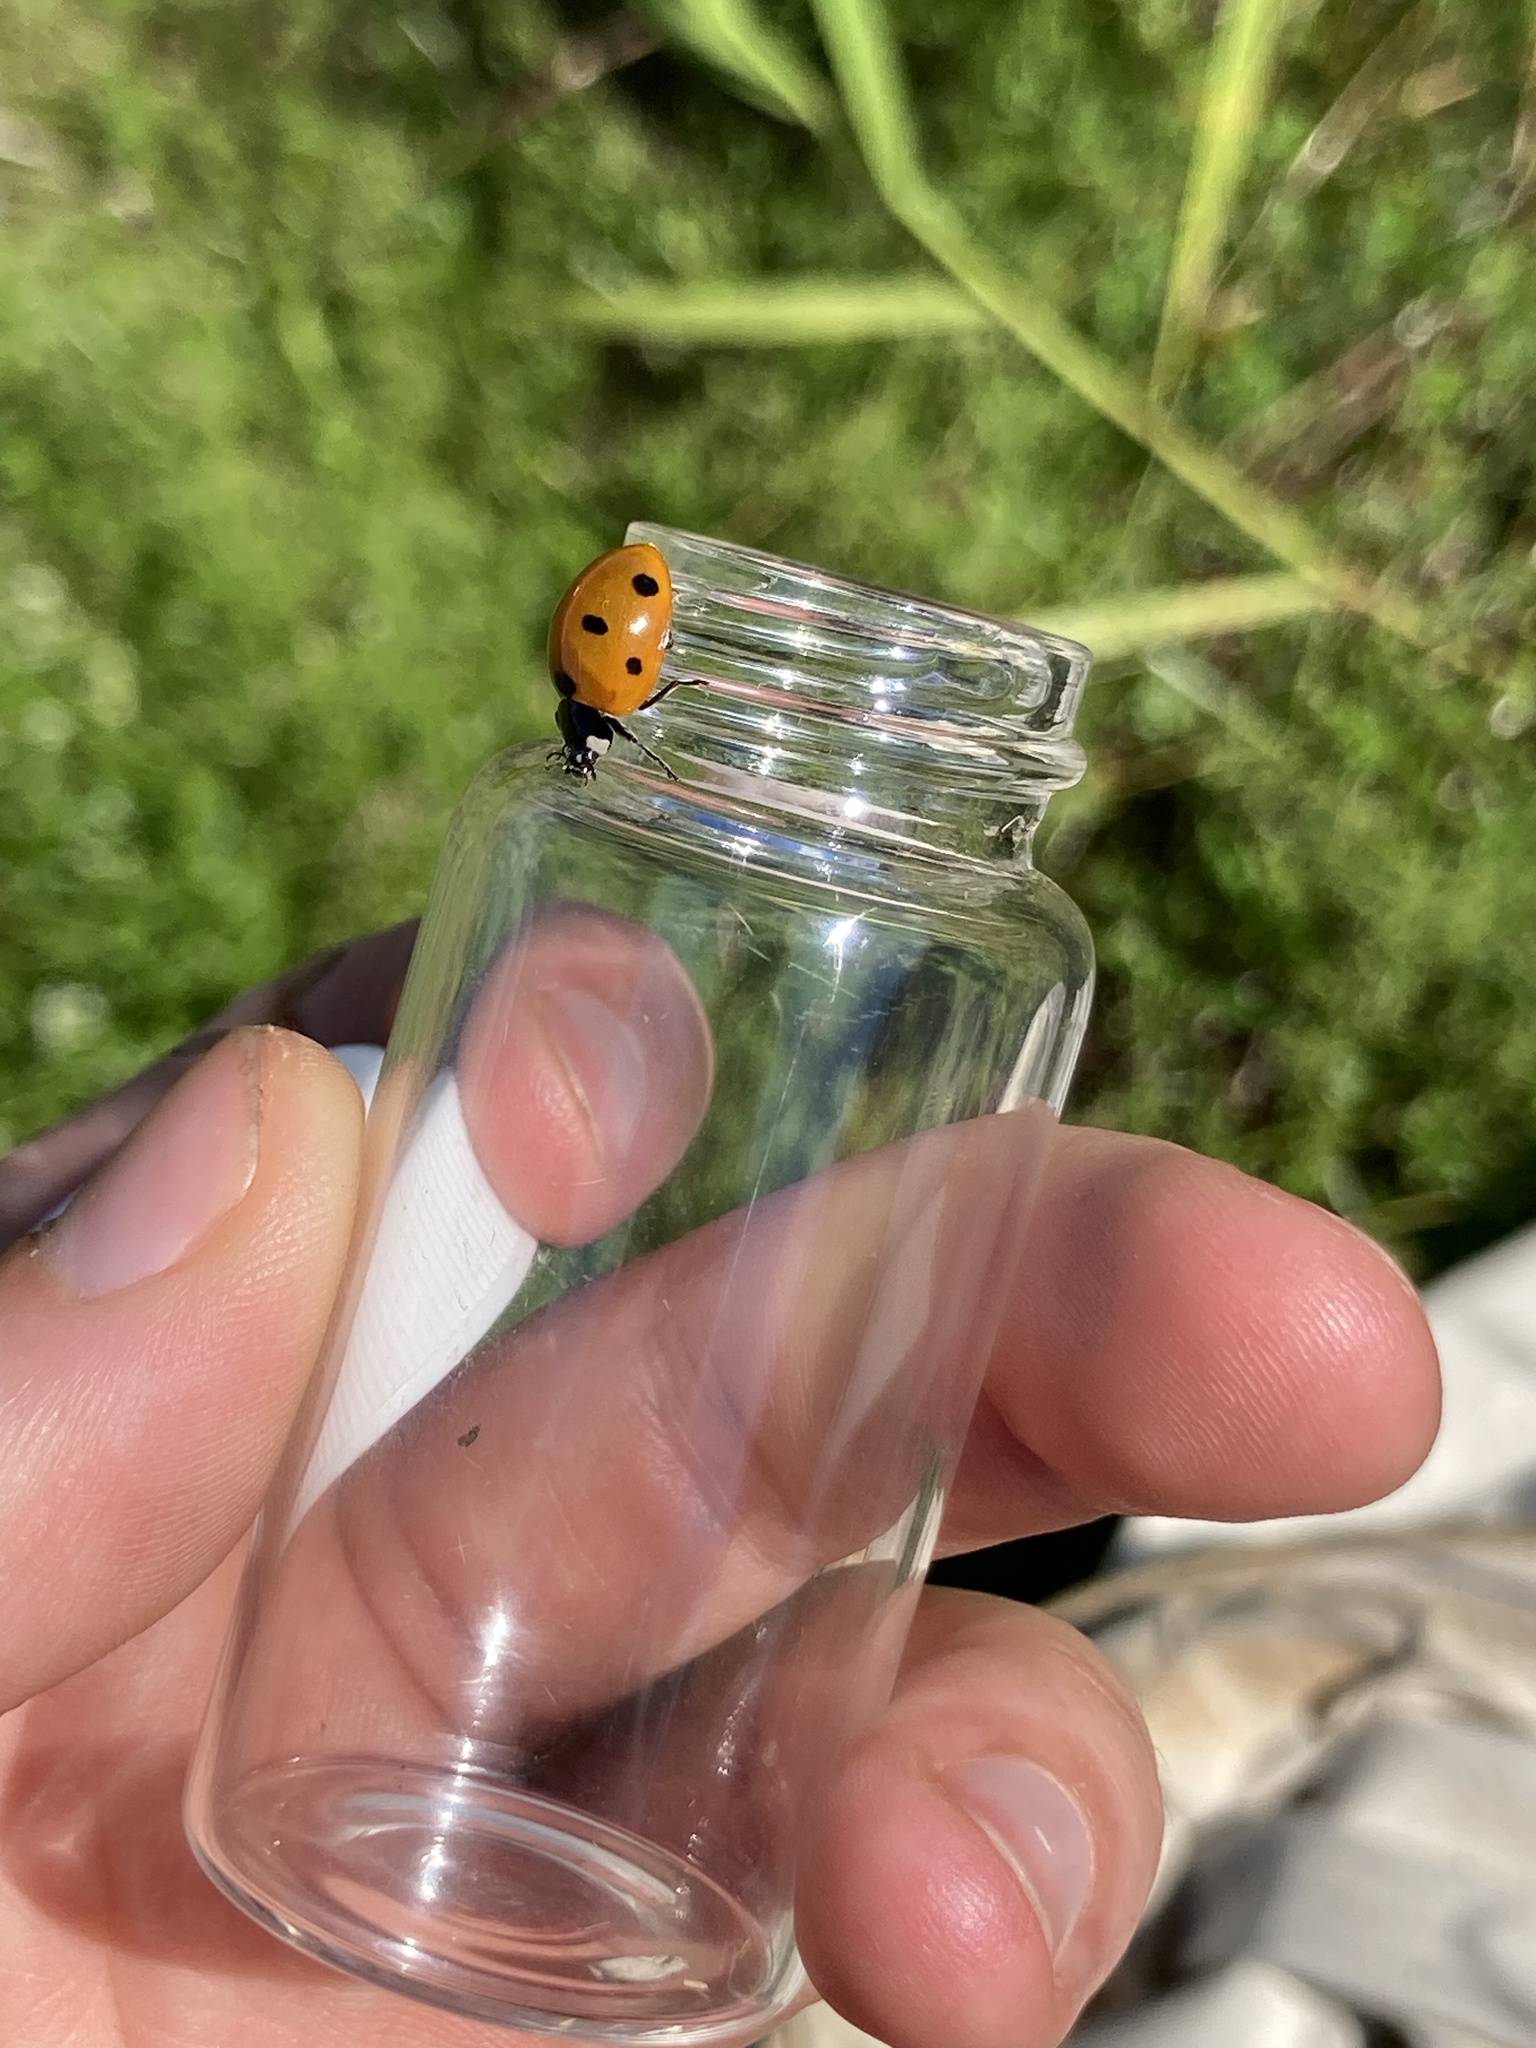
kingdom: Animalia
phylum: Arthropoda
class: Insecta
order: Coleoptera
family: Coccinellidae
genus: Coccinella
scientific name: Coccinella septempunctata
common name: Sevenspotted lady beetle
